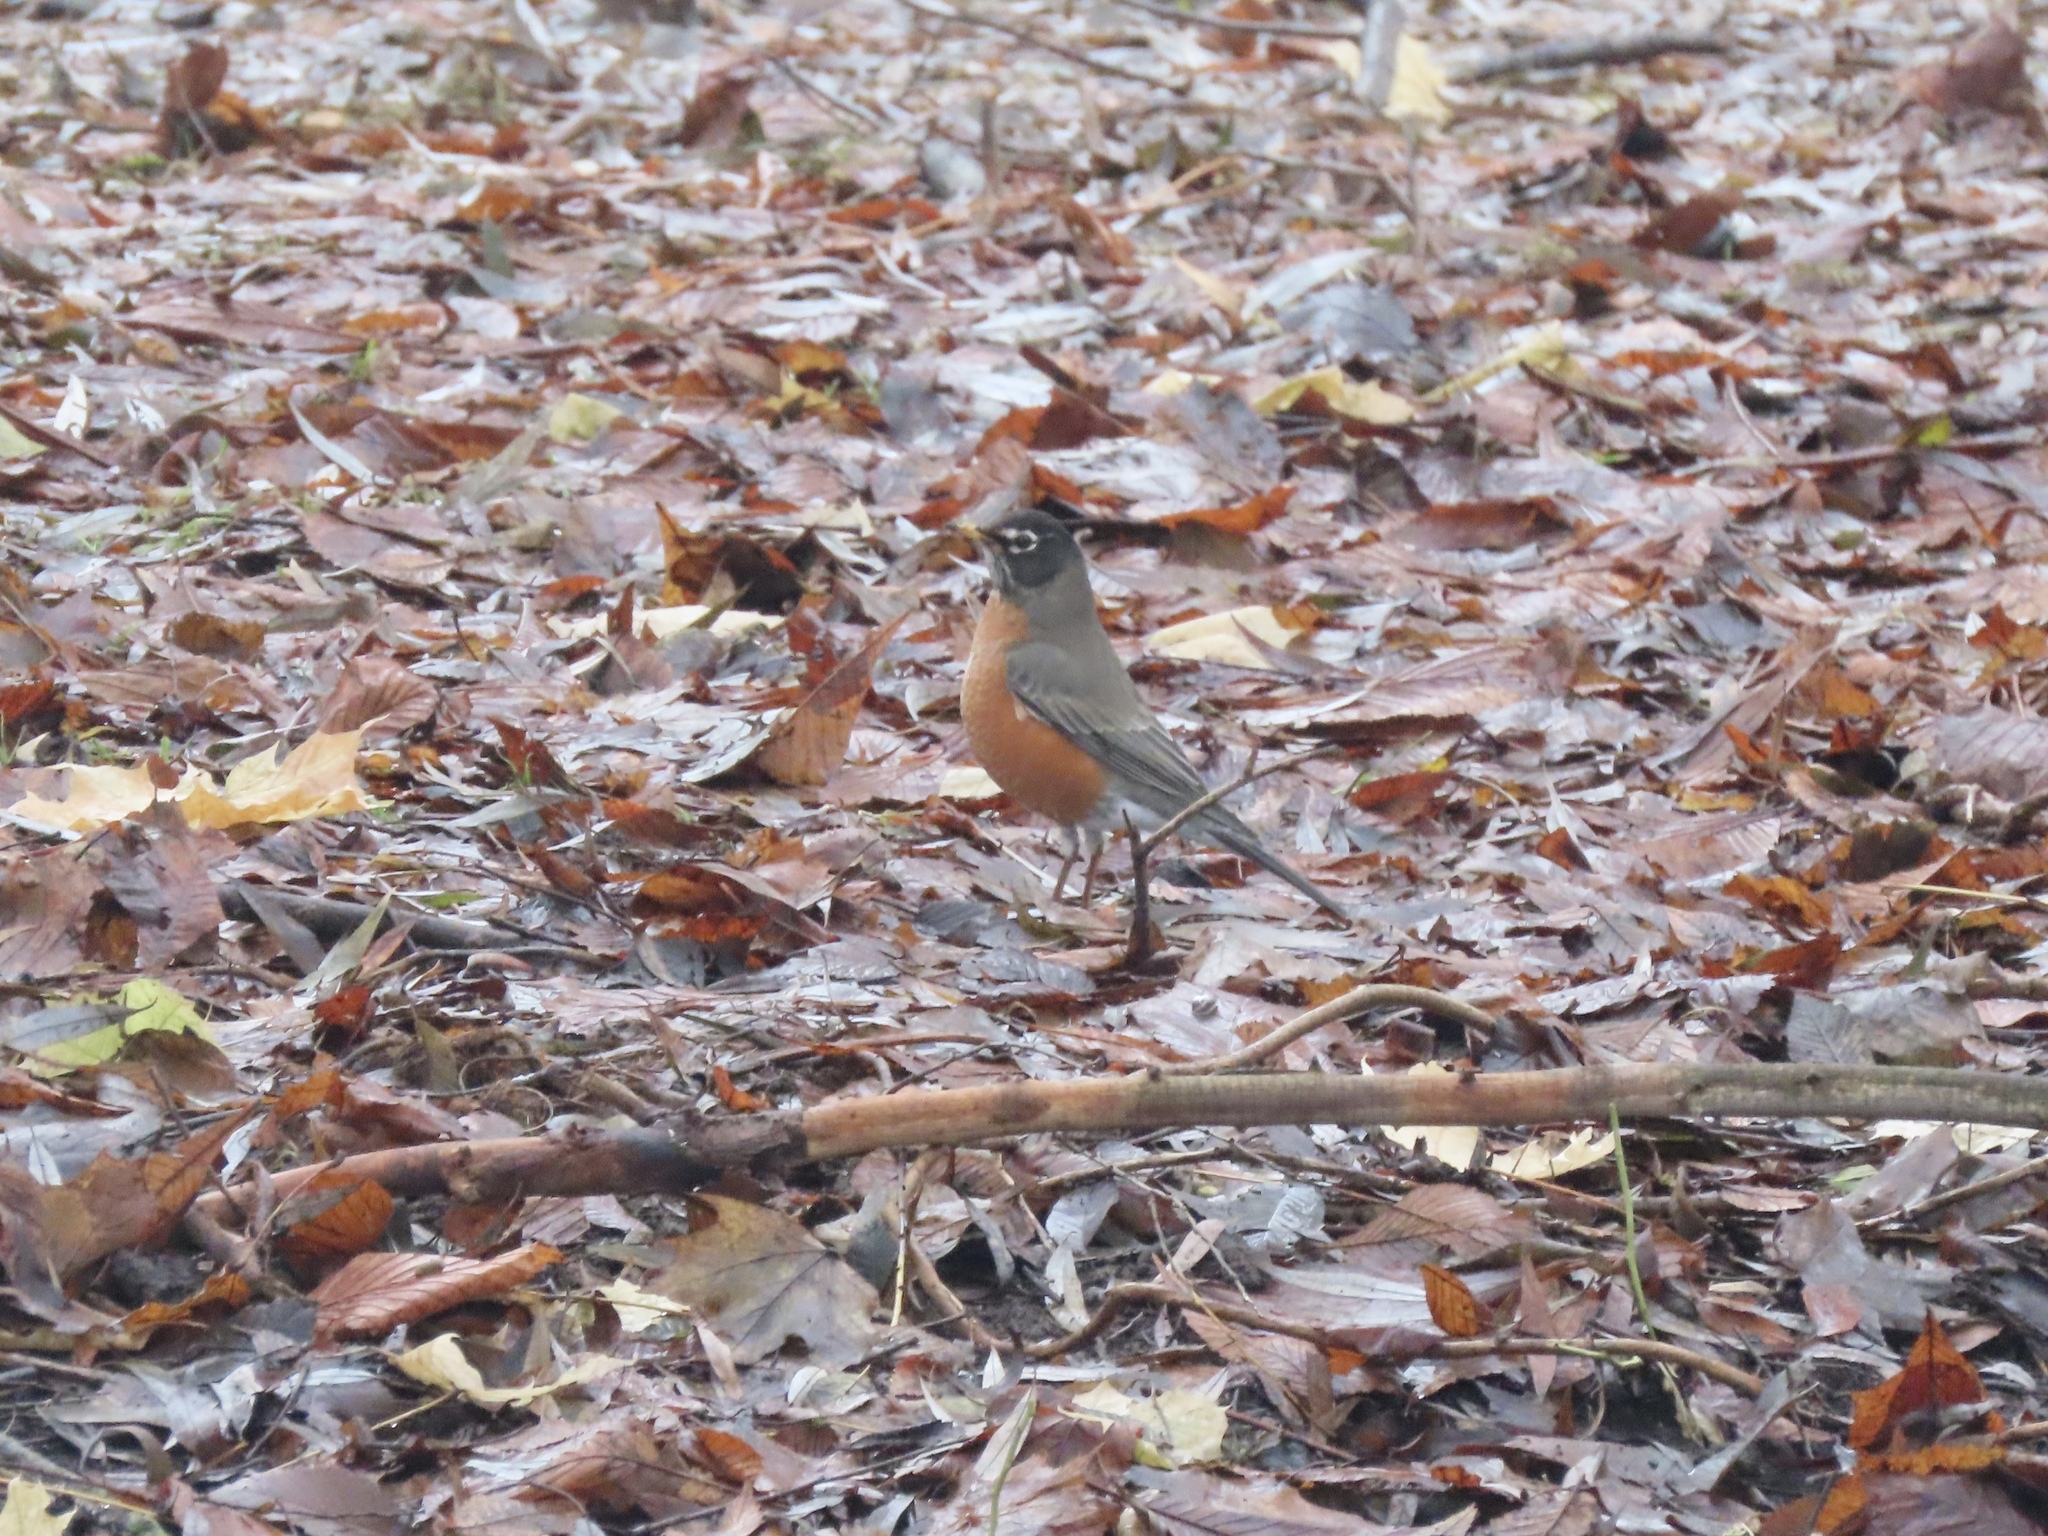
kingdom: Animalia
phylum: Chordata
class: Aves
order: Passeriformes
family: Turdidae
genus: Turdus
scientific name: Turdus migratorius
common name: American robin
